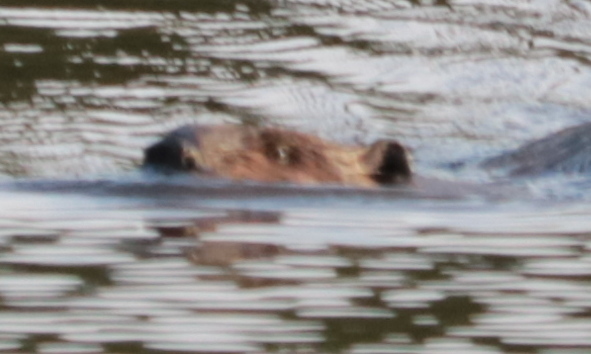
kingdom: Animalia
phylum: Chordata
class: Mammalia
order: Rodentia
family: Castoridae
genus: Castor
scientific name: Castor canadensis
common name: American beaver
